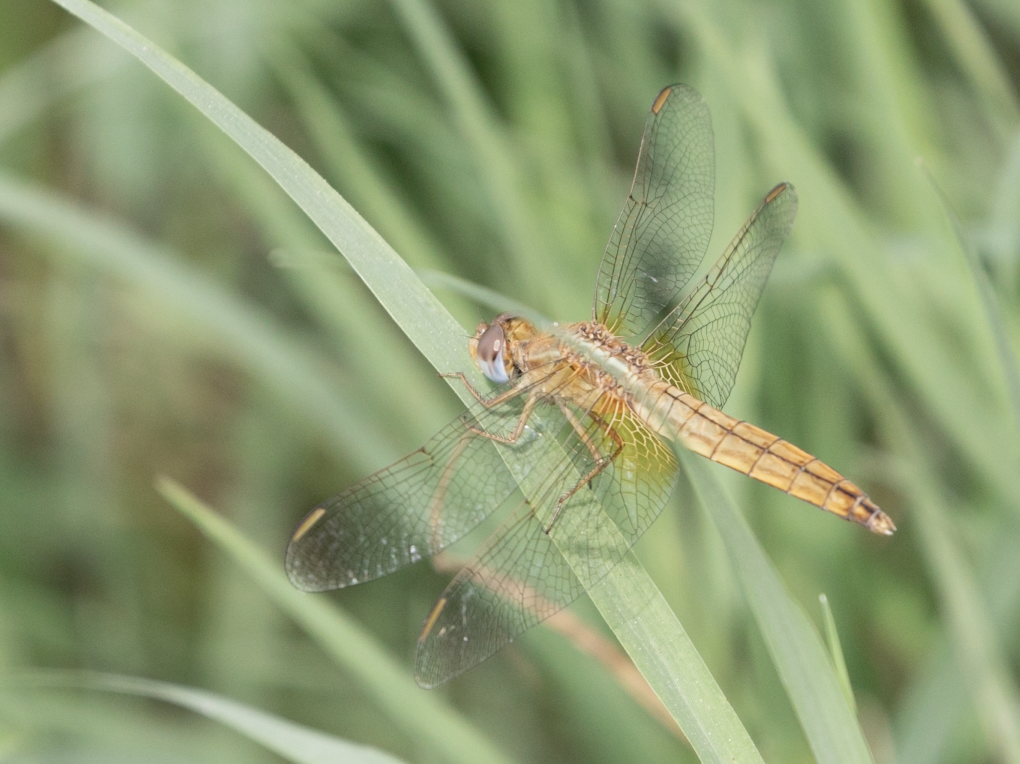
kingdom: Animalia
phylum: Arthropoda
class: Insecta
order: Odonata
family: Libellulidae
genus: Crocothemis
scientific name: Crocothemis erythraea
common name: Scarlet dragonfly
